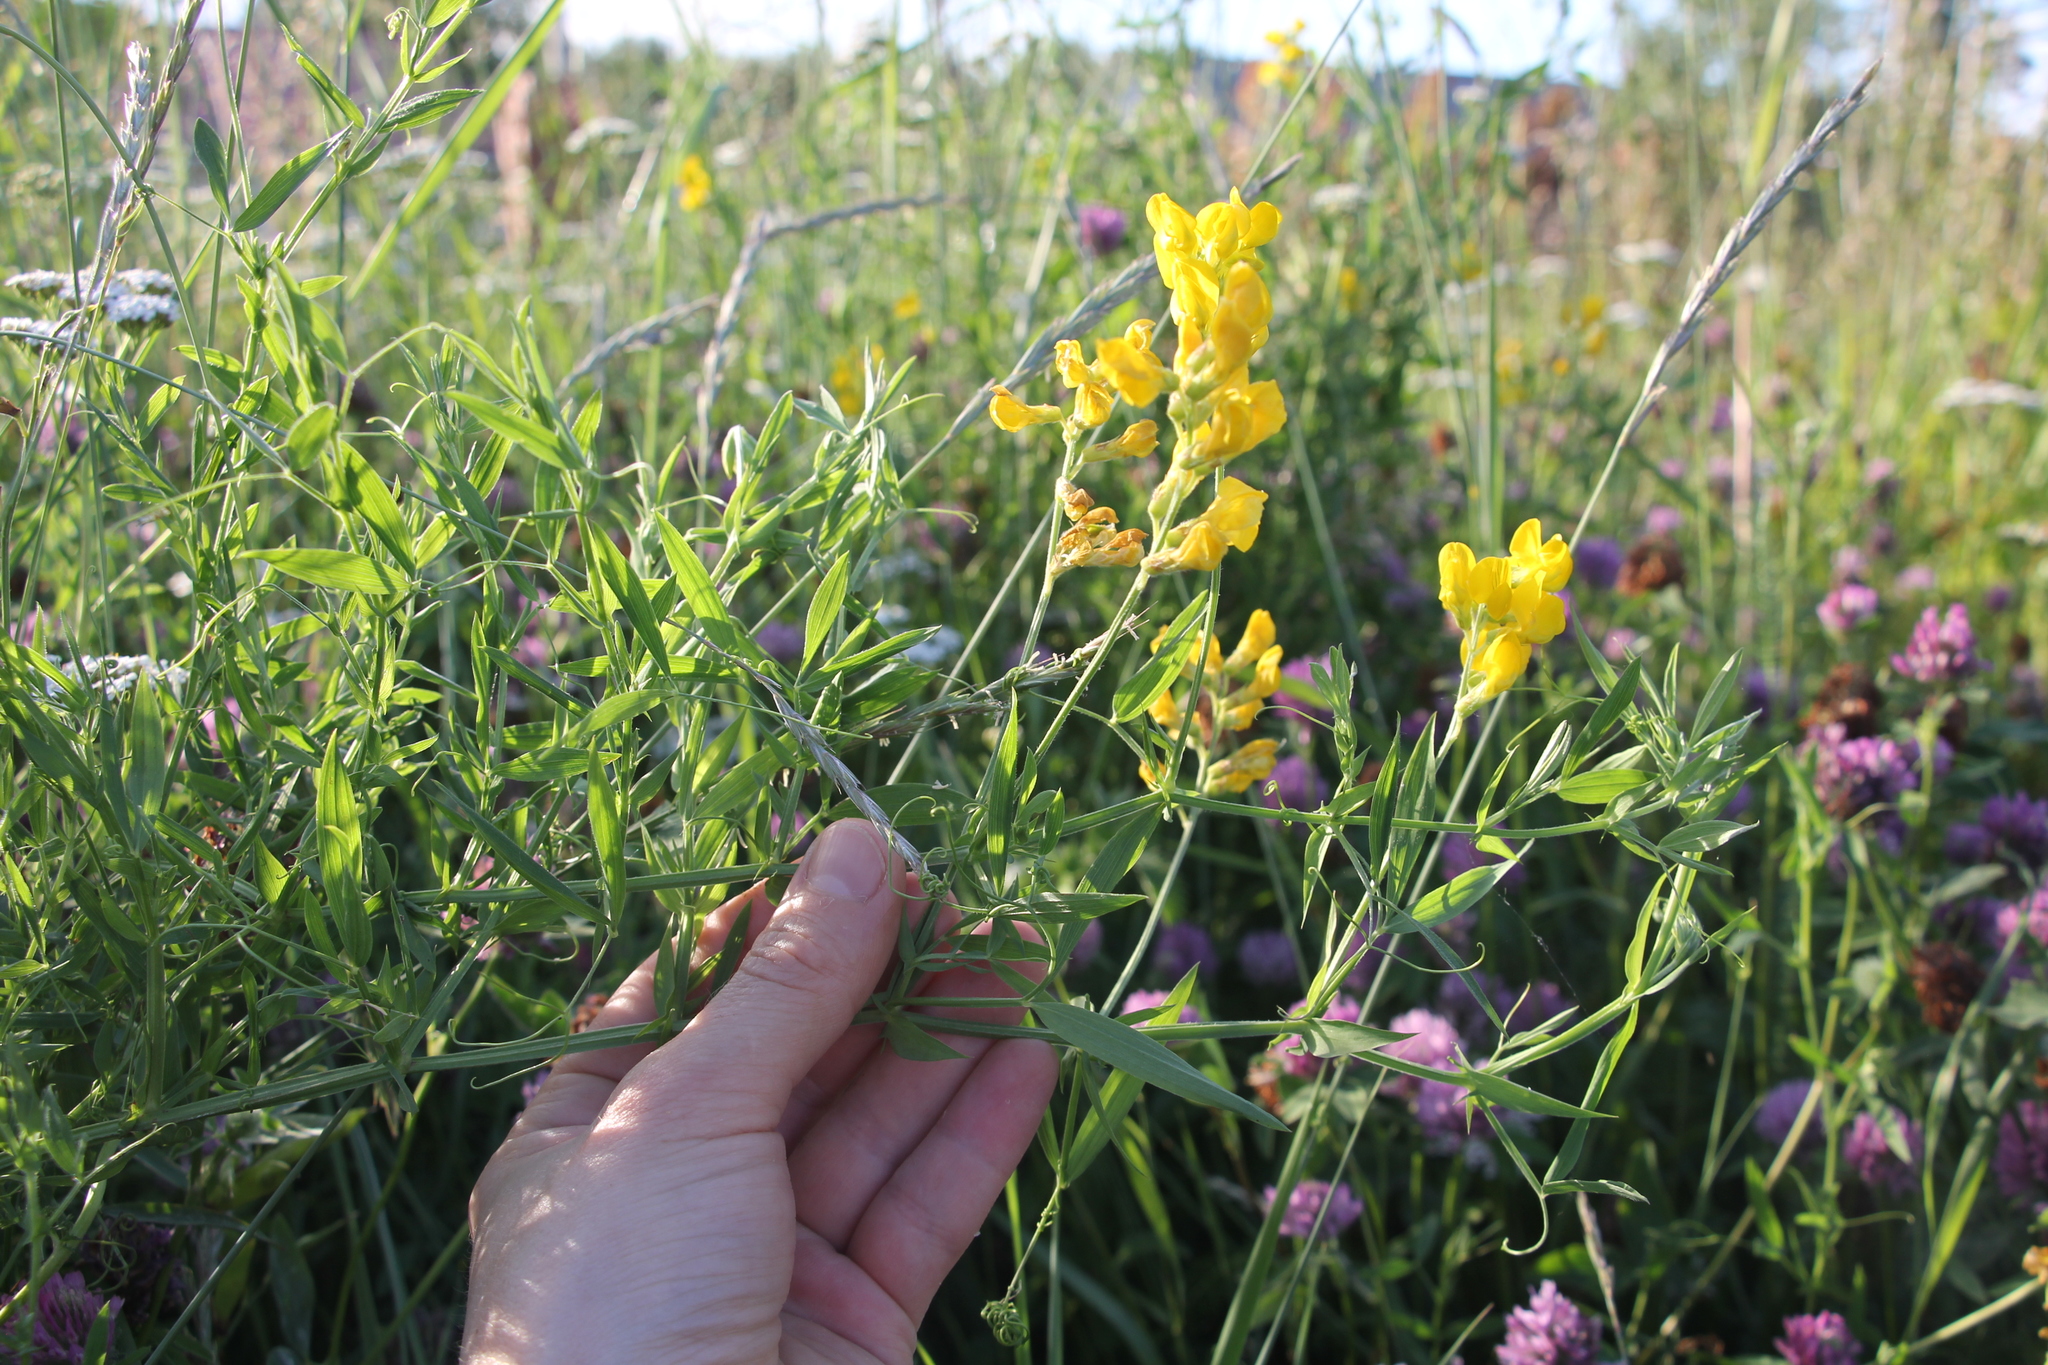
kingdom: Plantae
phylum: Tracheophyta
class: Magnoliopsida
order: Fabales
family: Fabaceae
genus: Lathyrus
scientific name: Lathyrus pratensis
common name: Meadow vetchling
